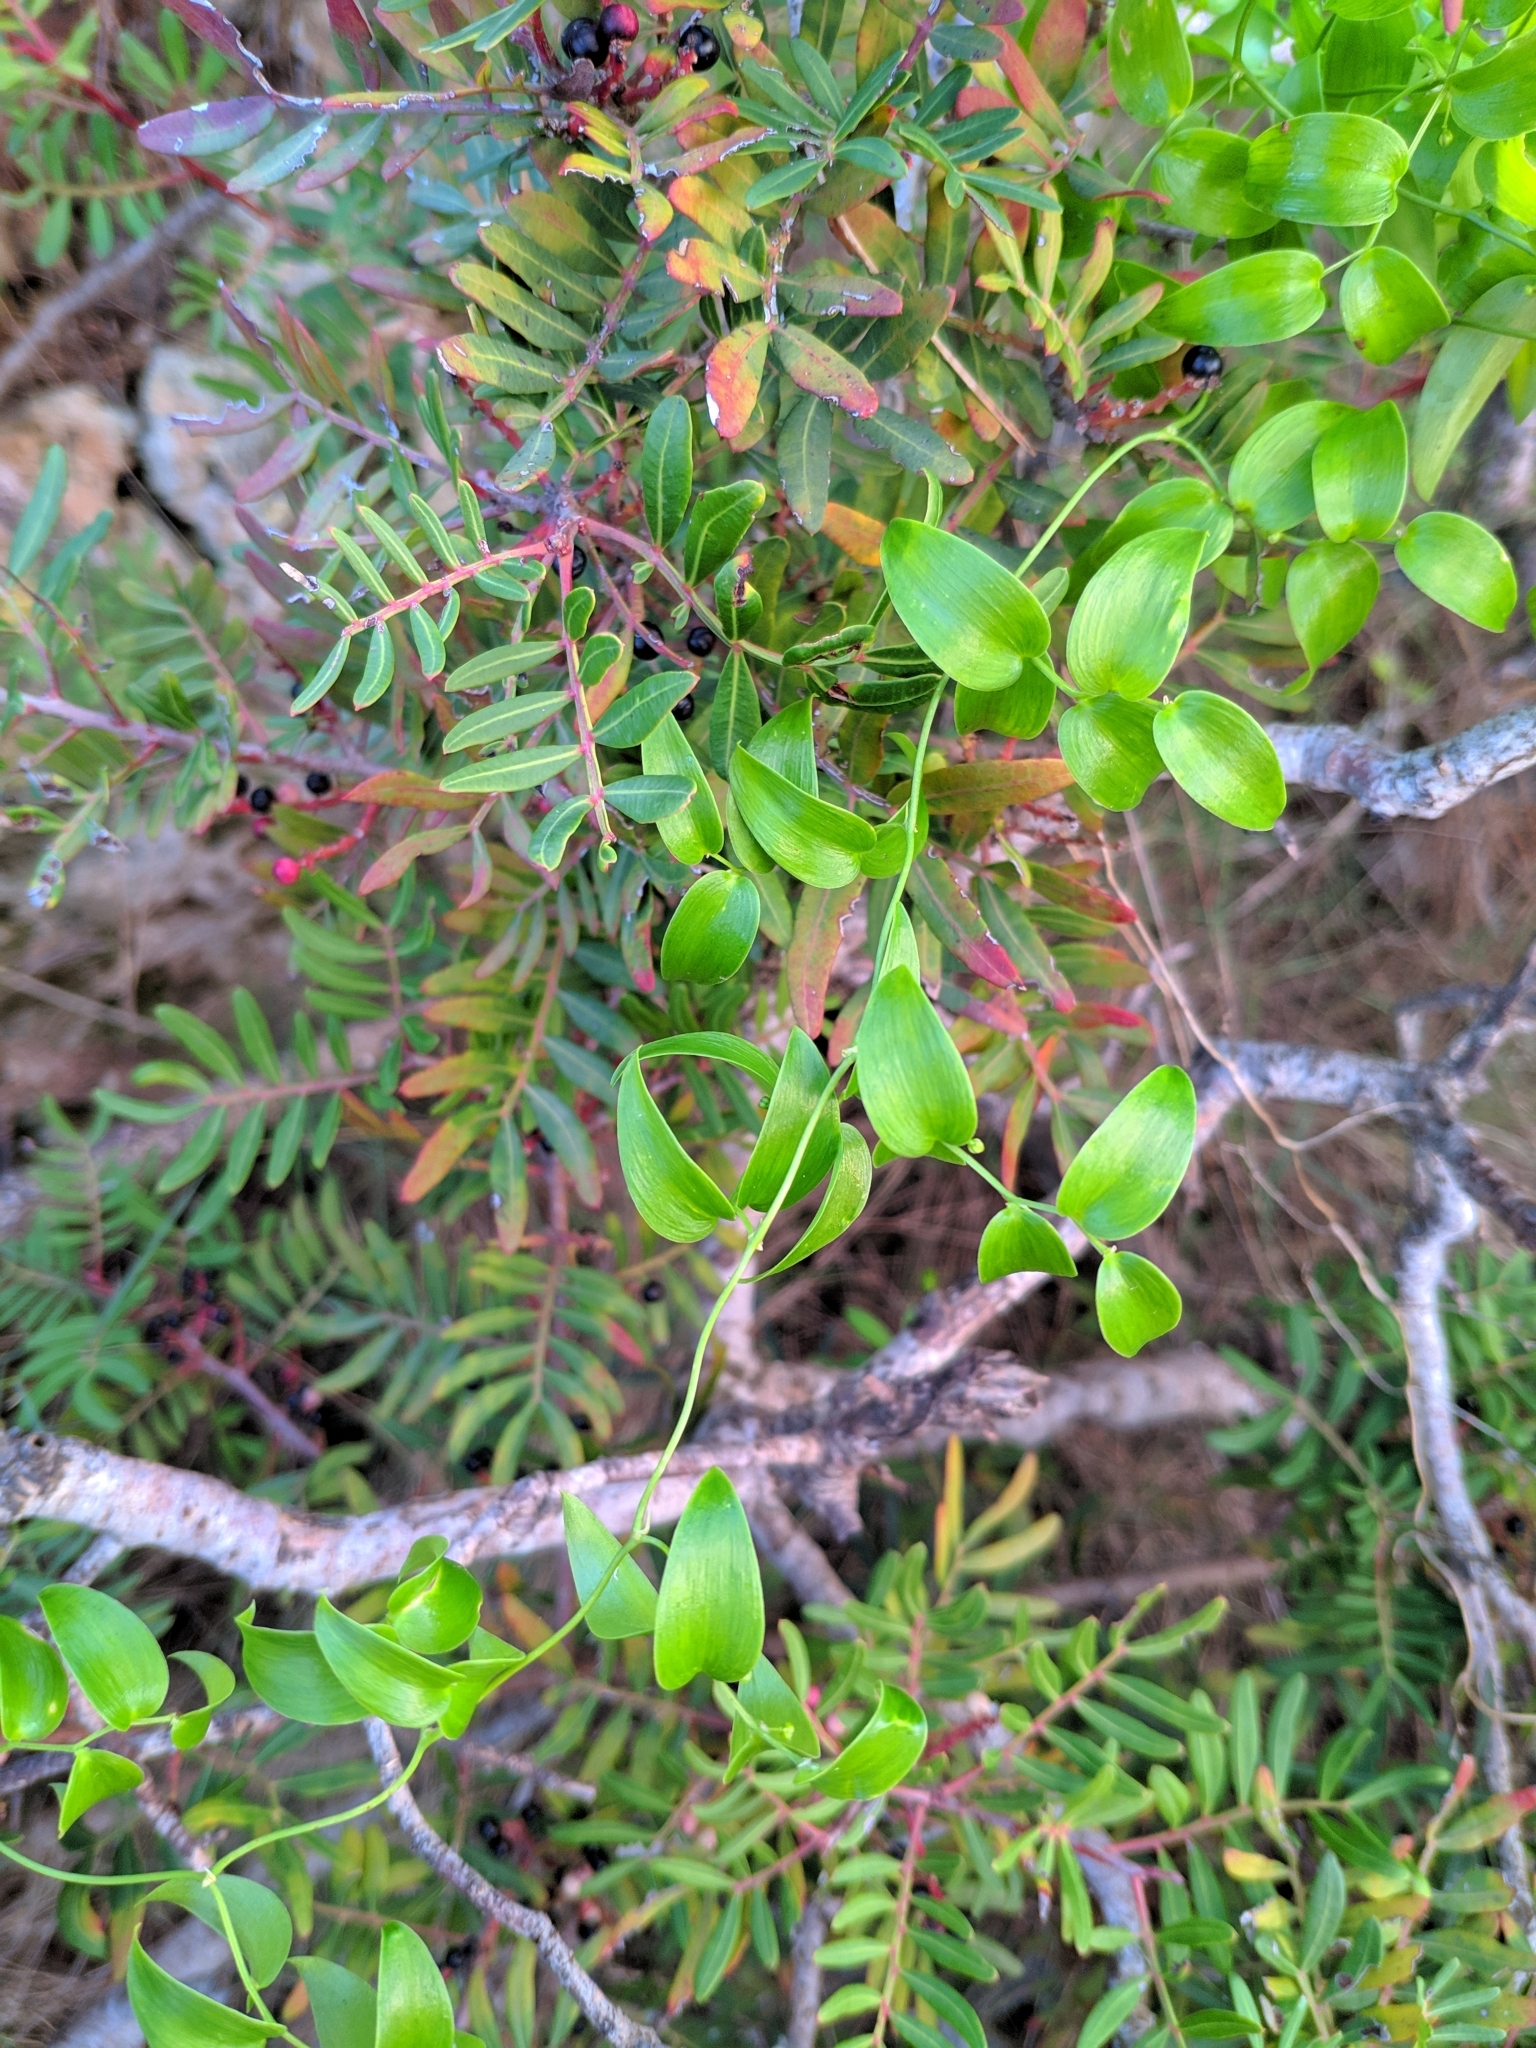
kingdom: Plantae
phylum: Tracheophyta
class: Liliopsida
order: Asparagales
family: Asparagaceae
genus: Asparagus
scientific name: Asparagus asparagoides
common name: African asparagus fern
